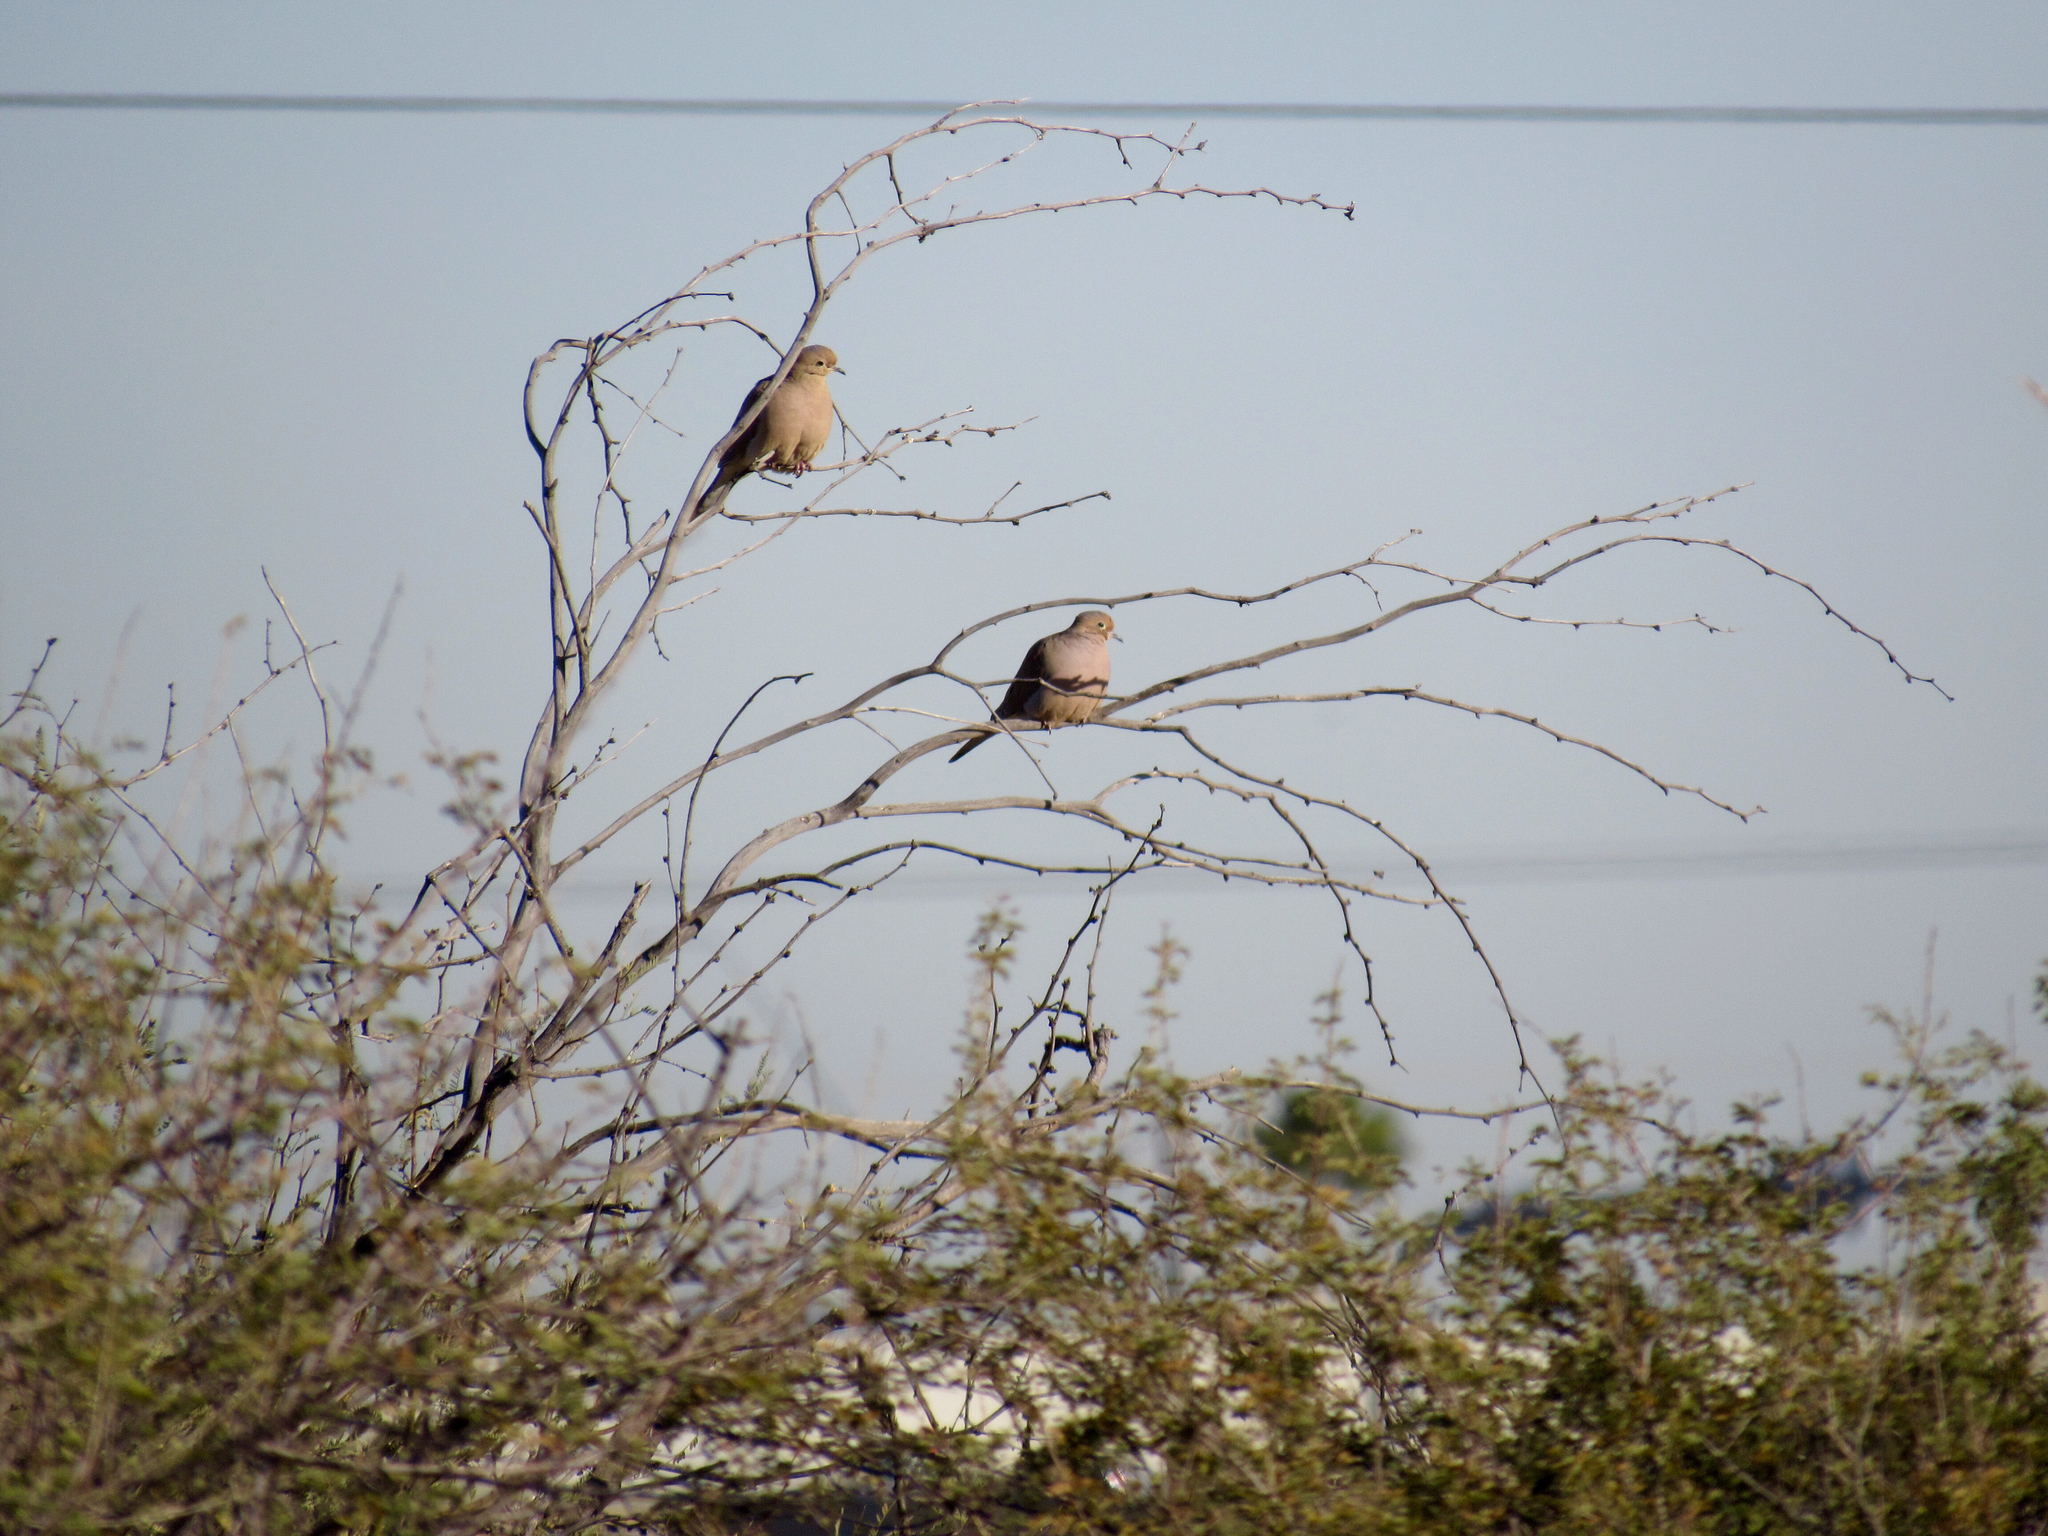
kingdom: Animalia
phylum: Chordata
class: Aves
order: Columbiformes
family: Columbidae
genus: Zenaida
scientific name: Zenaida macroura
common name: Mourning dove
